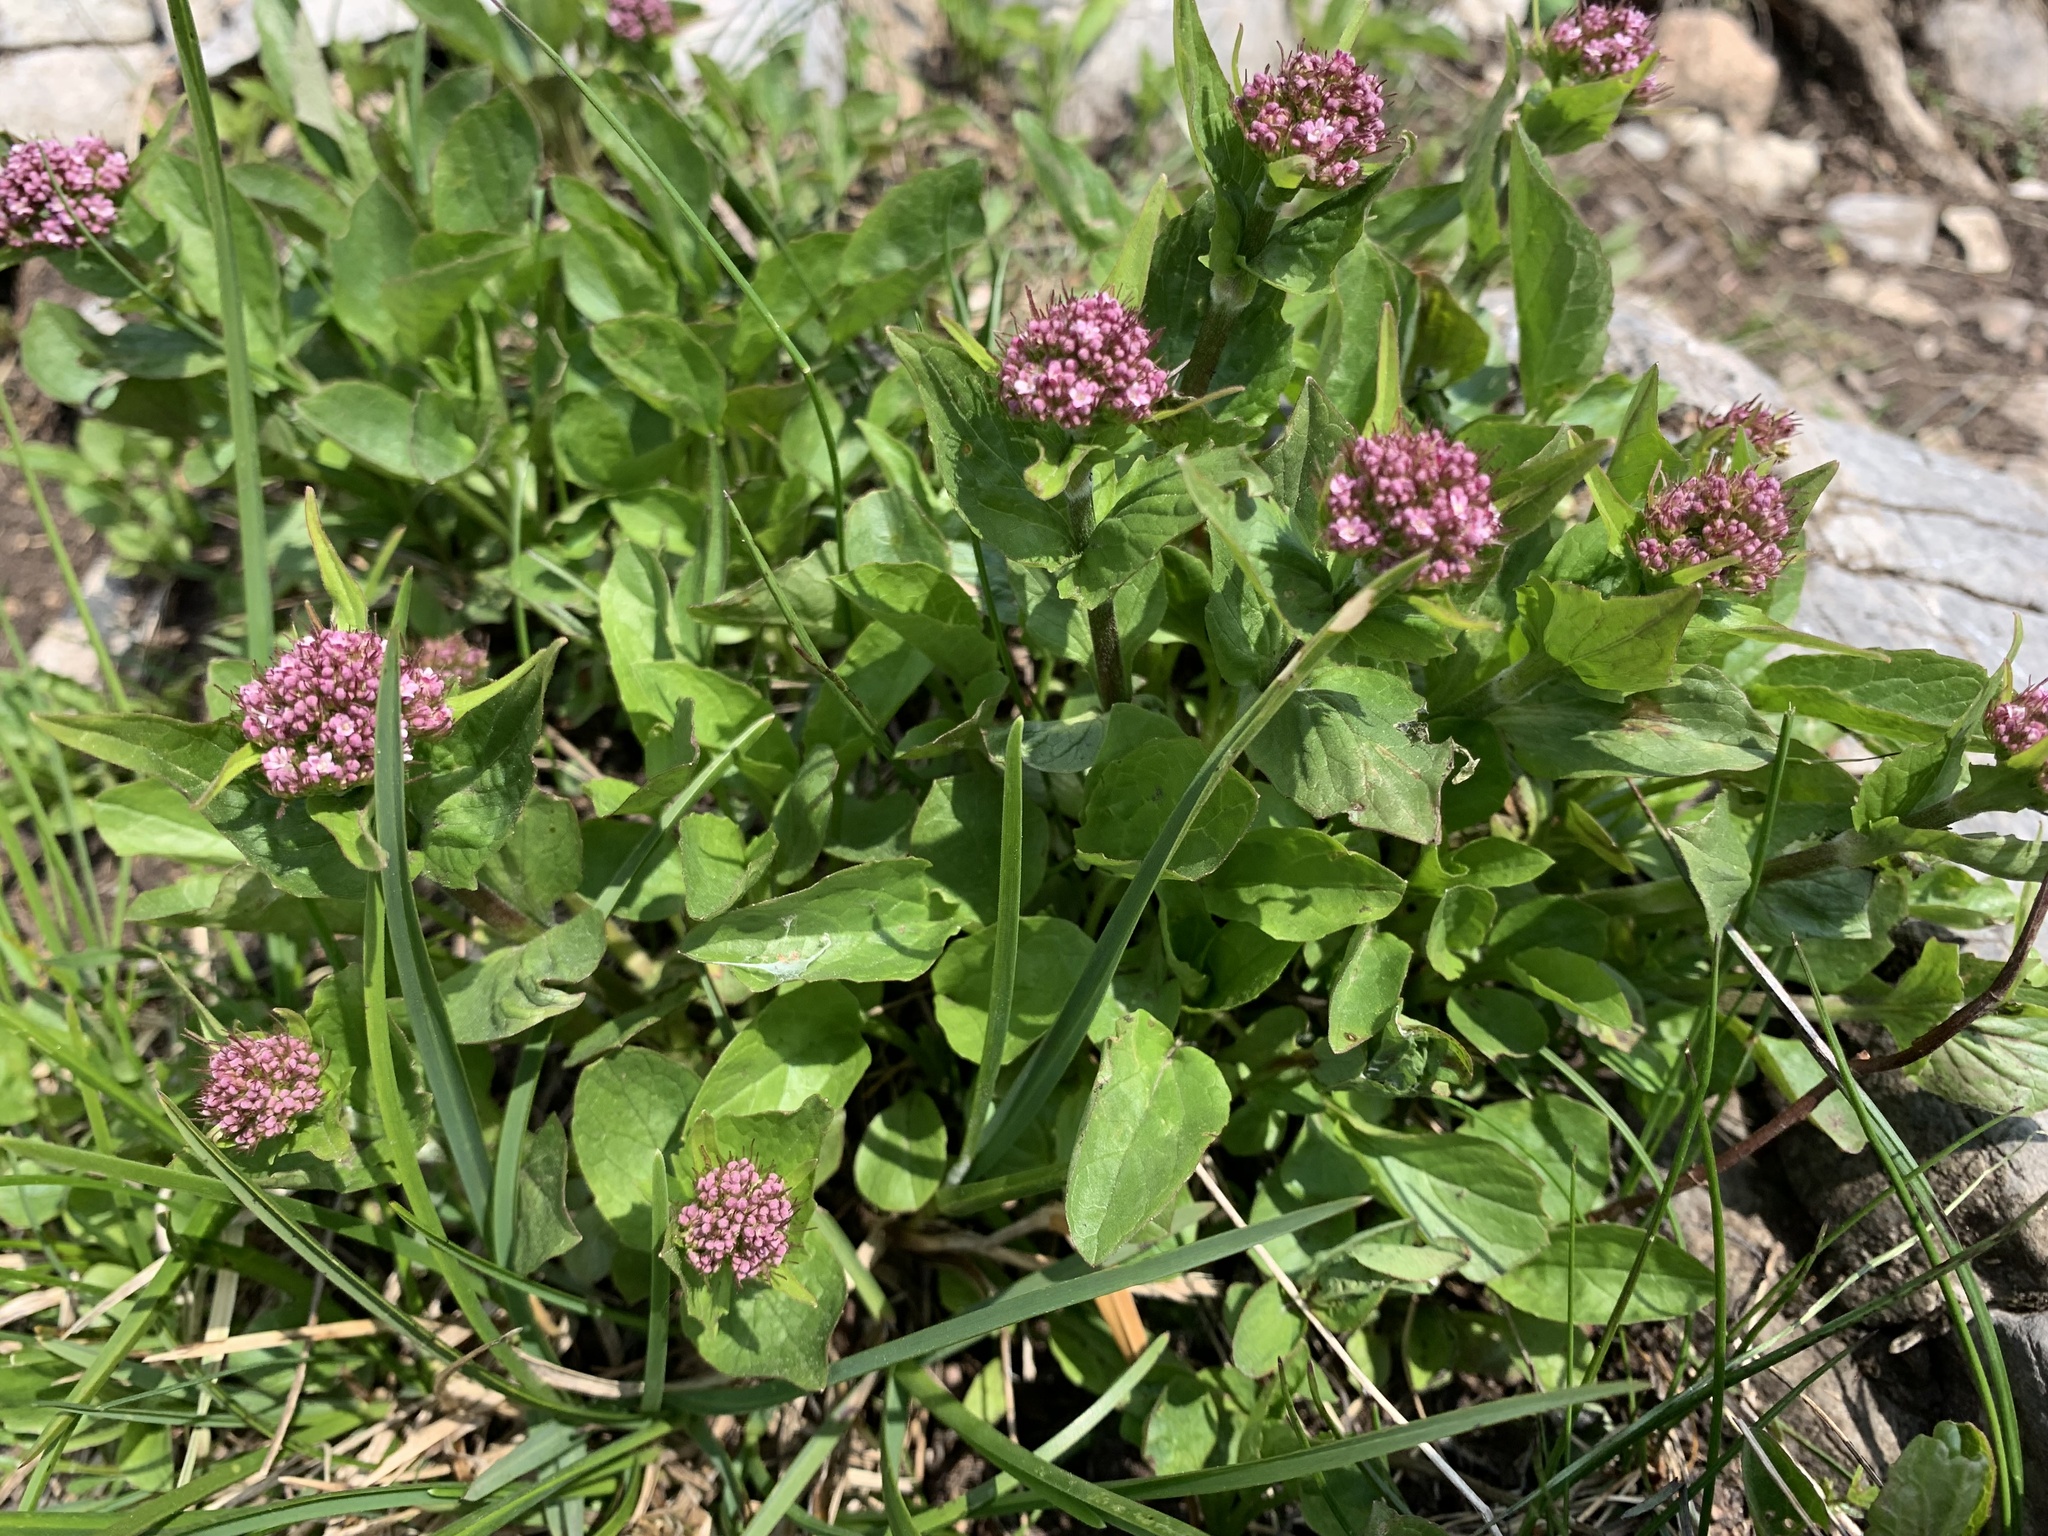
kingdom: Plantae
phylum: Tracheophyta
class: Magnoliopsida
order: Dipsacales
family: Caprifoliaceae
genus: Valeriana
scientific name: Valeriana montana
